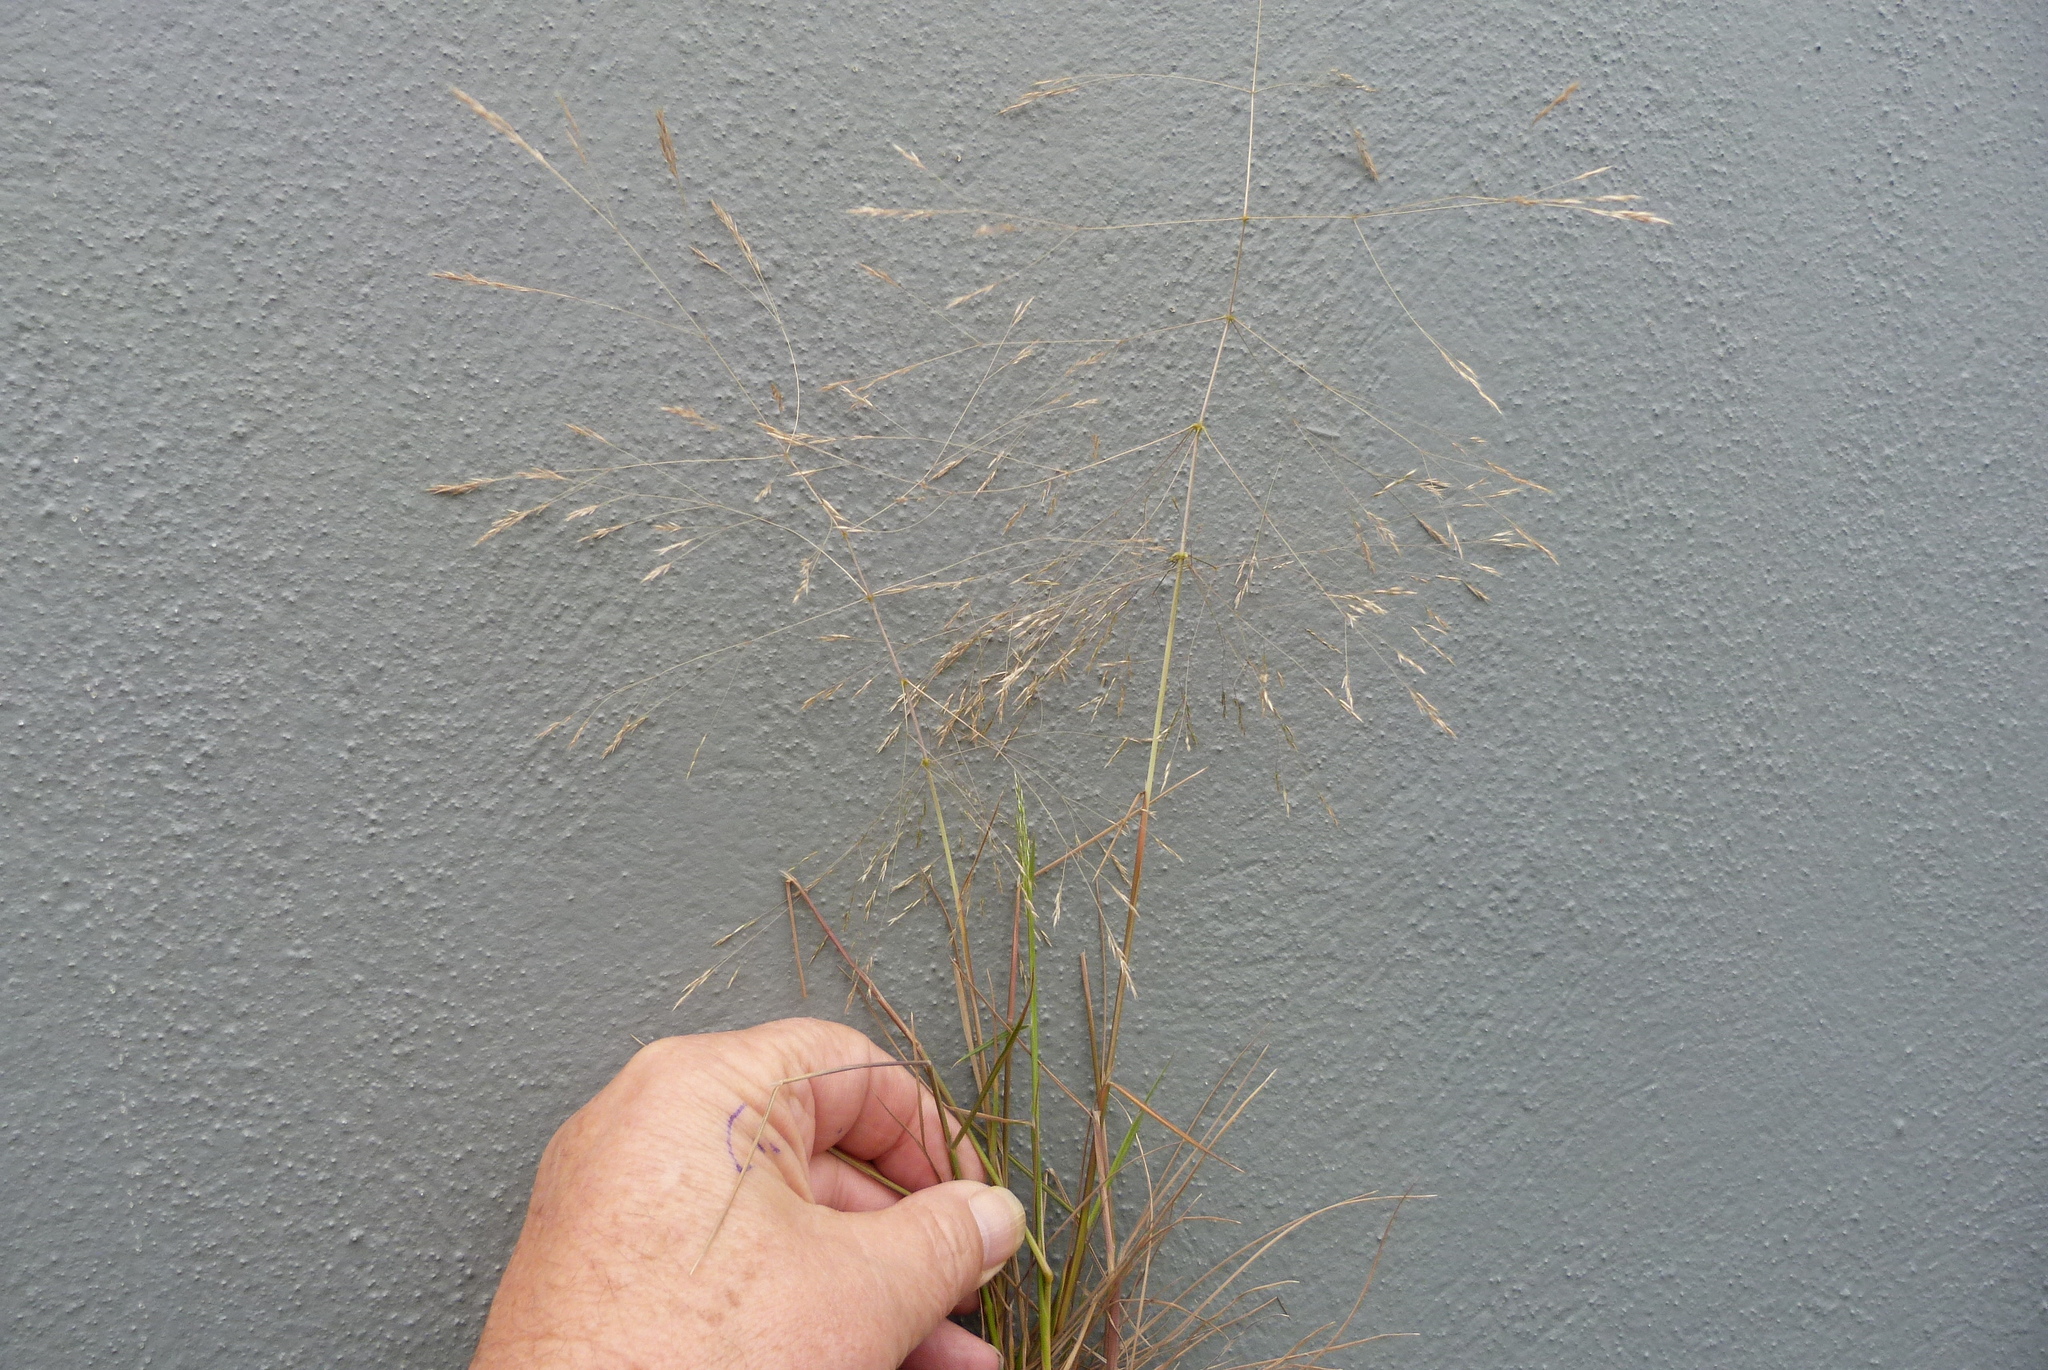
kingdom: Plantae
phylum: Tracheophyta
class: Liliopsida
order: Poales
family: Poaceae
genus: Lachnagrostis
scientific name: Lachnagrostis filiformis
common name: Bentgrass
